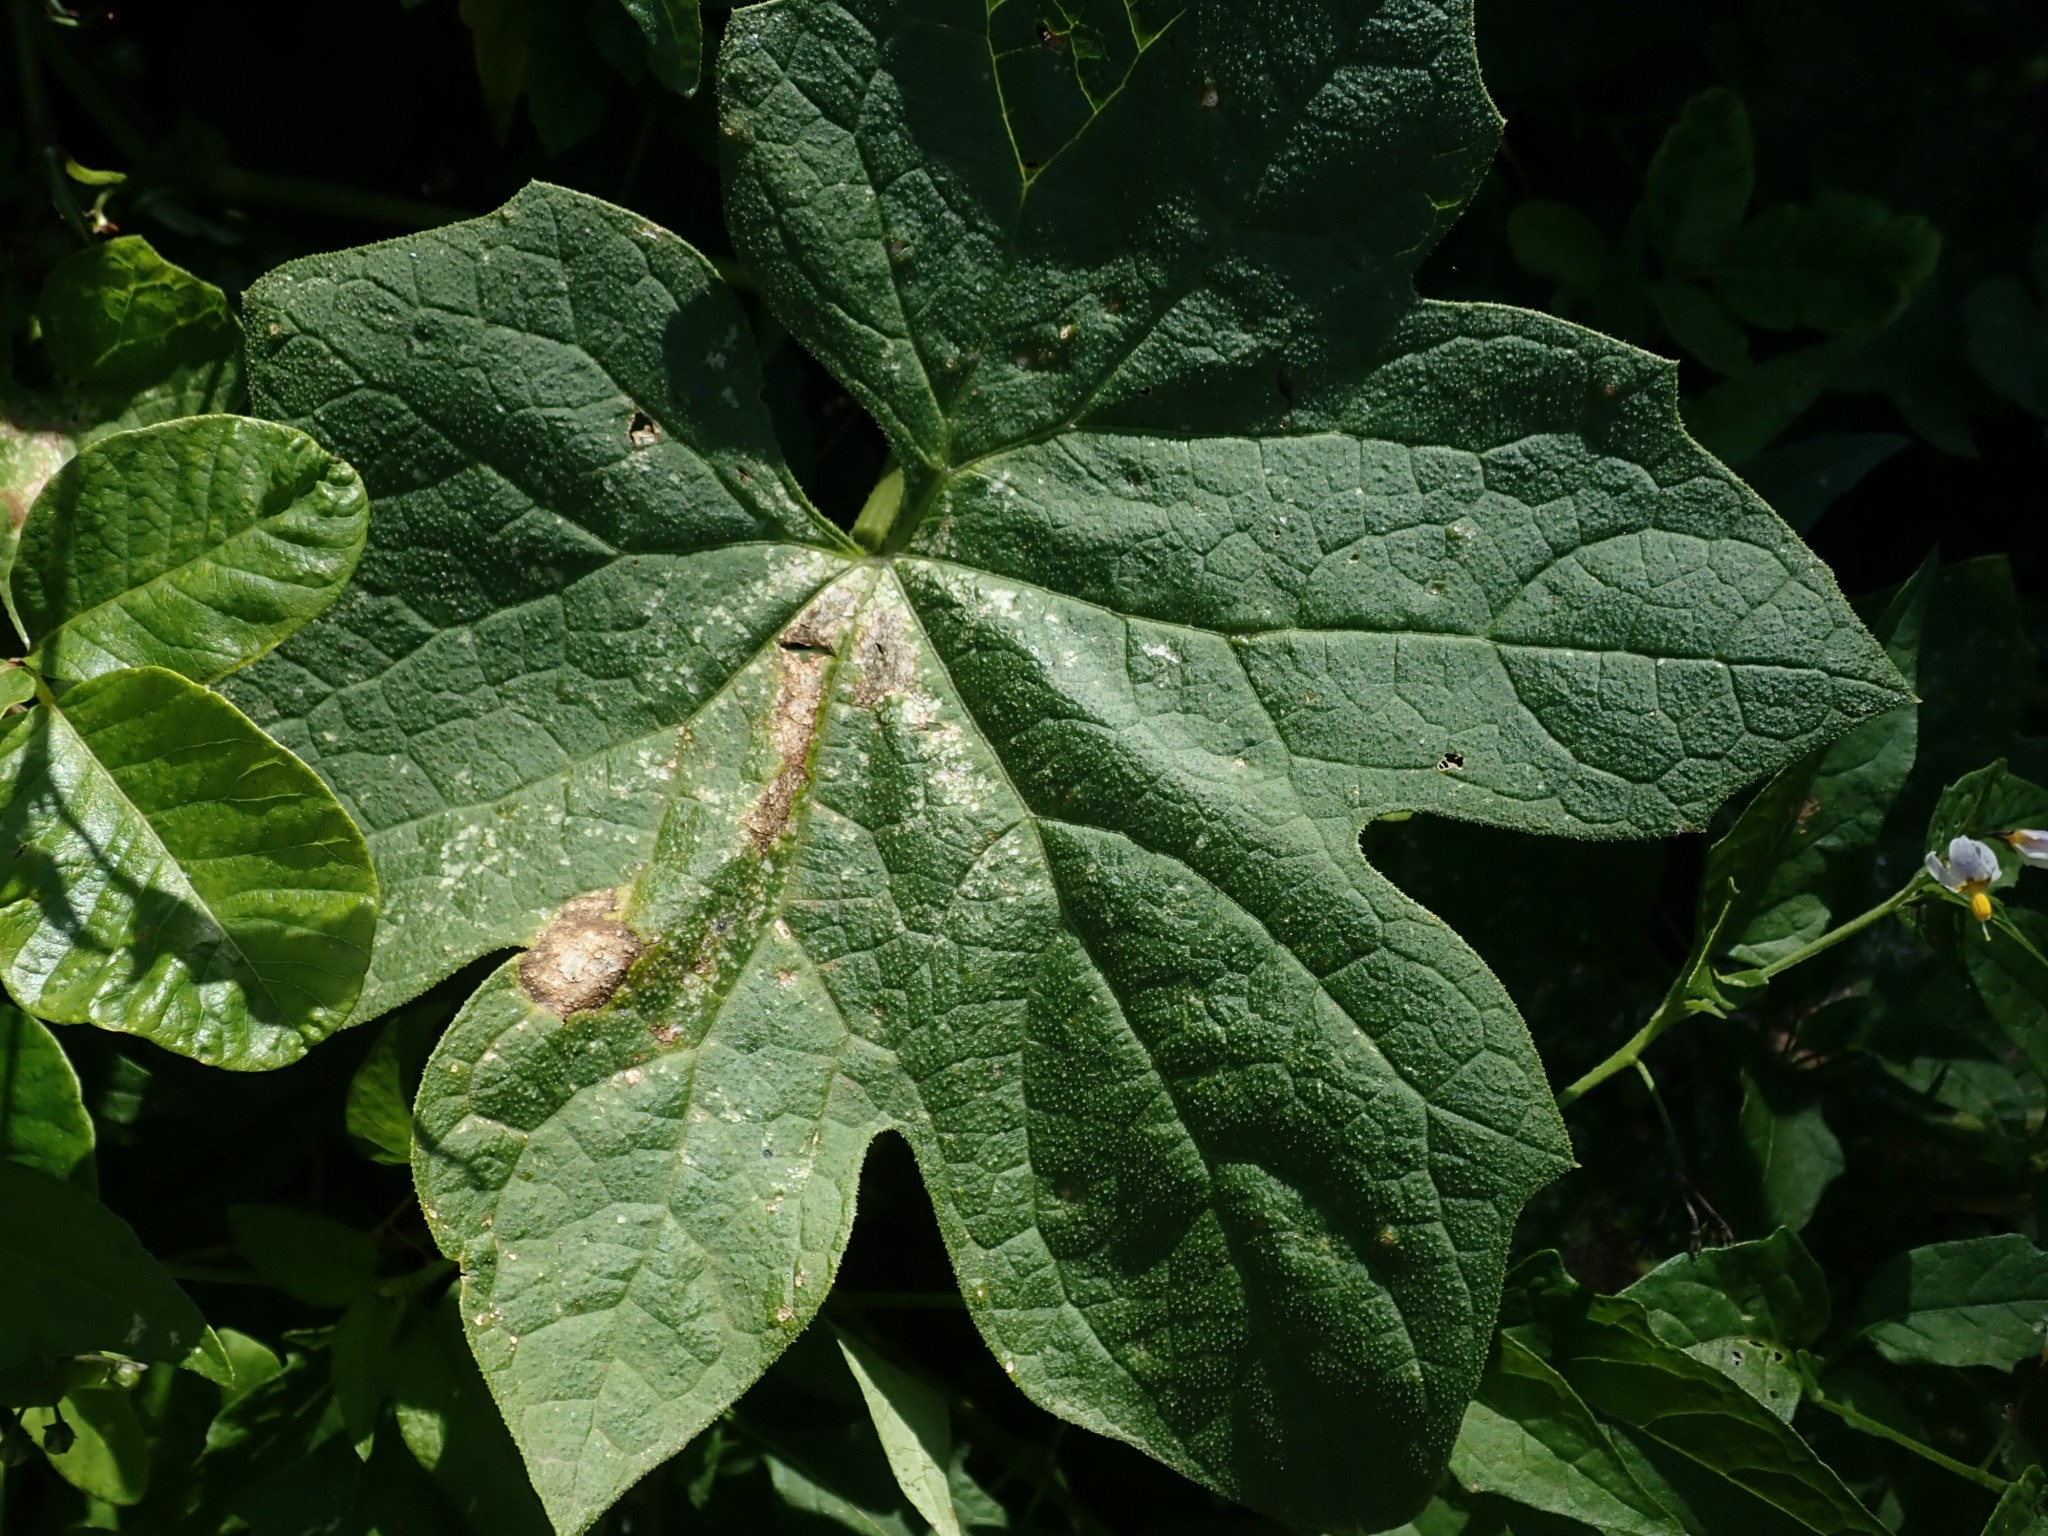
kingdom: Plantae
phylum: Tracheophyta
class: Magnoliopsida
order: Cucurbitales
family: Cucurbitaceae
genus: Marah
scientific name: Marah oregana
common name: Coastal manroot
